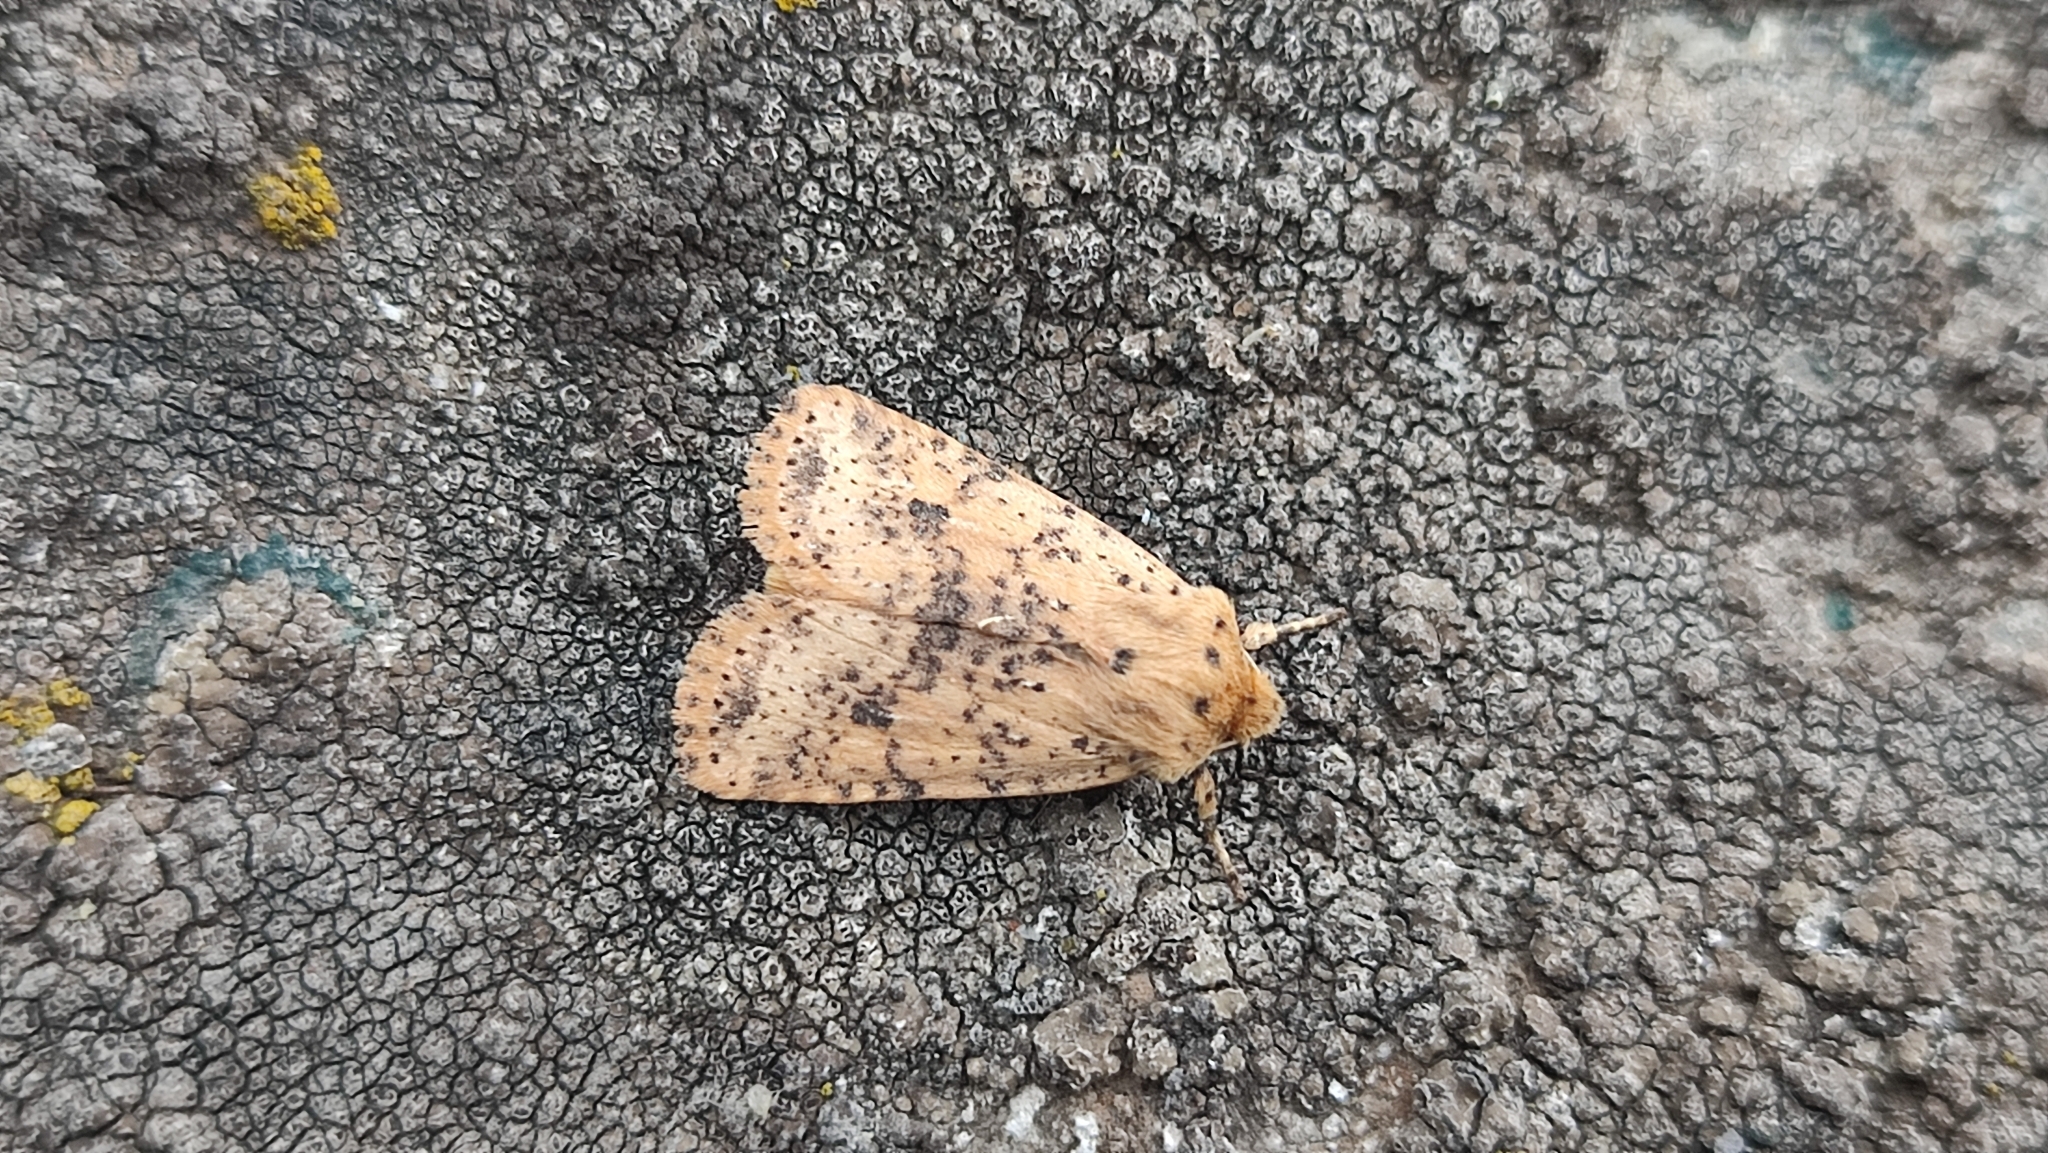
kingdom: Animalia
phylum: Arthropoda
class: Insecta
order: Lepidoptera
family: Noctuidae
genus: Conistra
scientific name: Conistra rubiginea
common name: Dotted chestnut
